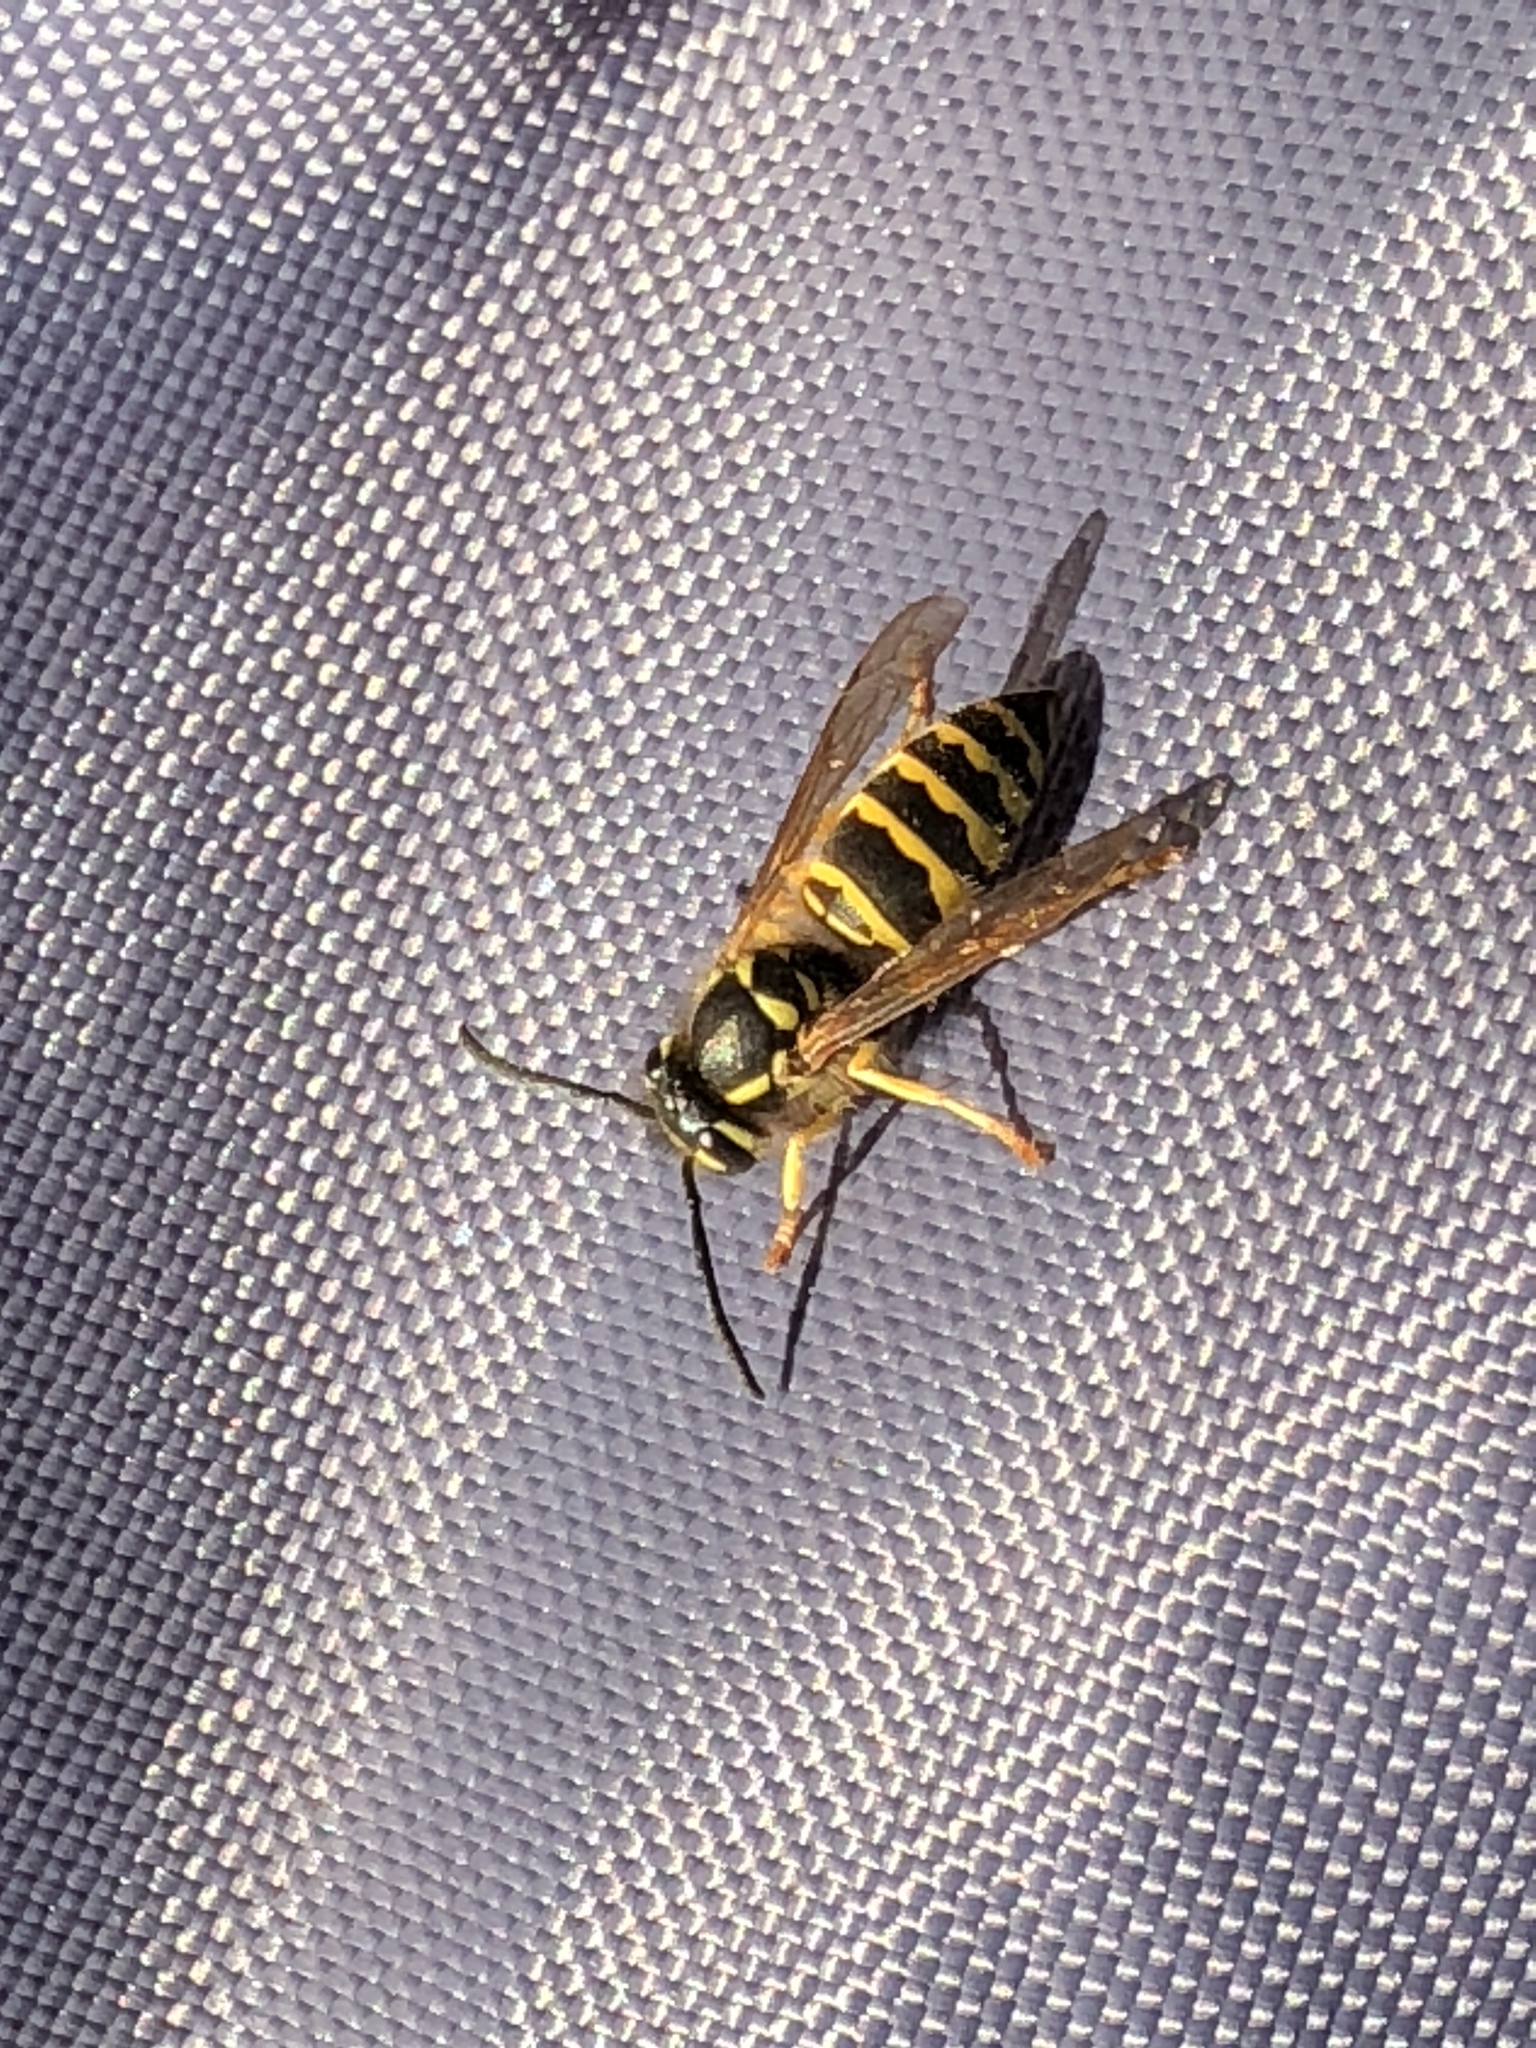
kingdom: Animalia
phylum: Arthropoda
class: Insecta
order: Hymenoptera
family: Vespidae
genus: Vespula
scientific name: Vespula maculifrons
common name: Eastern yellowjacket
